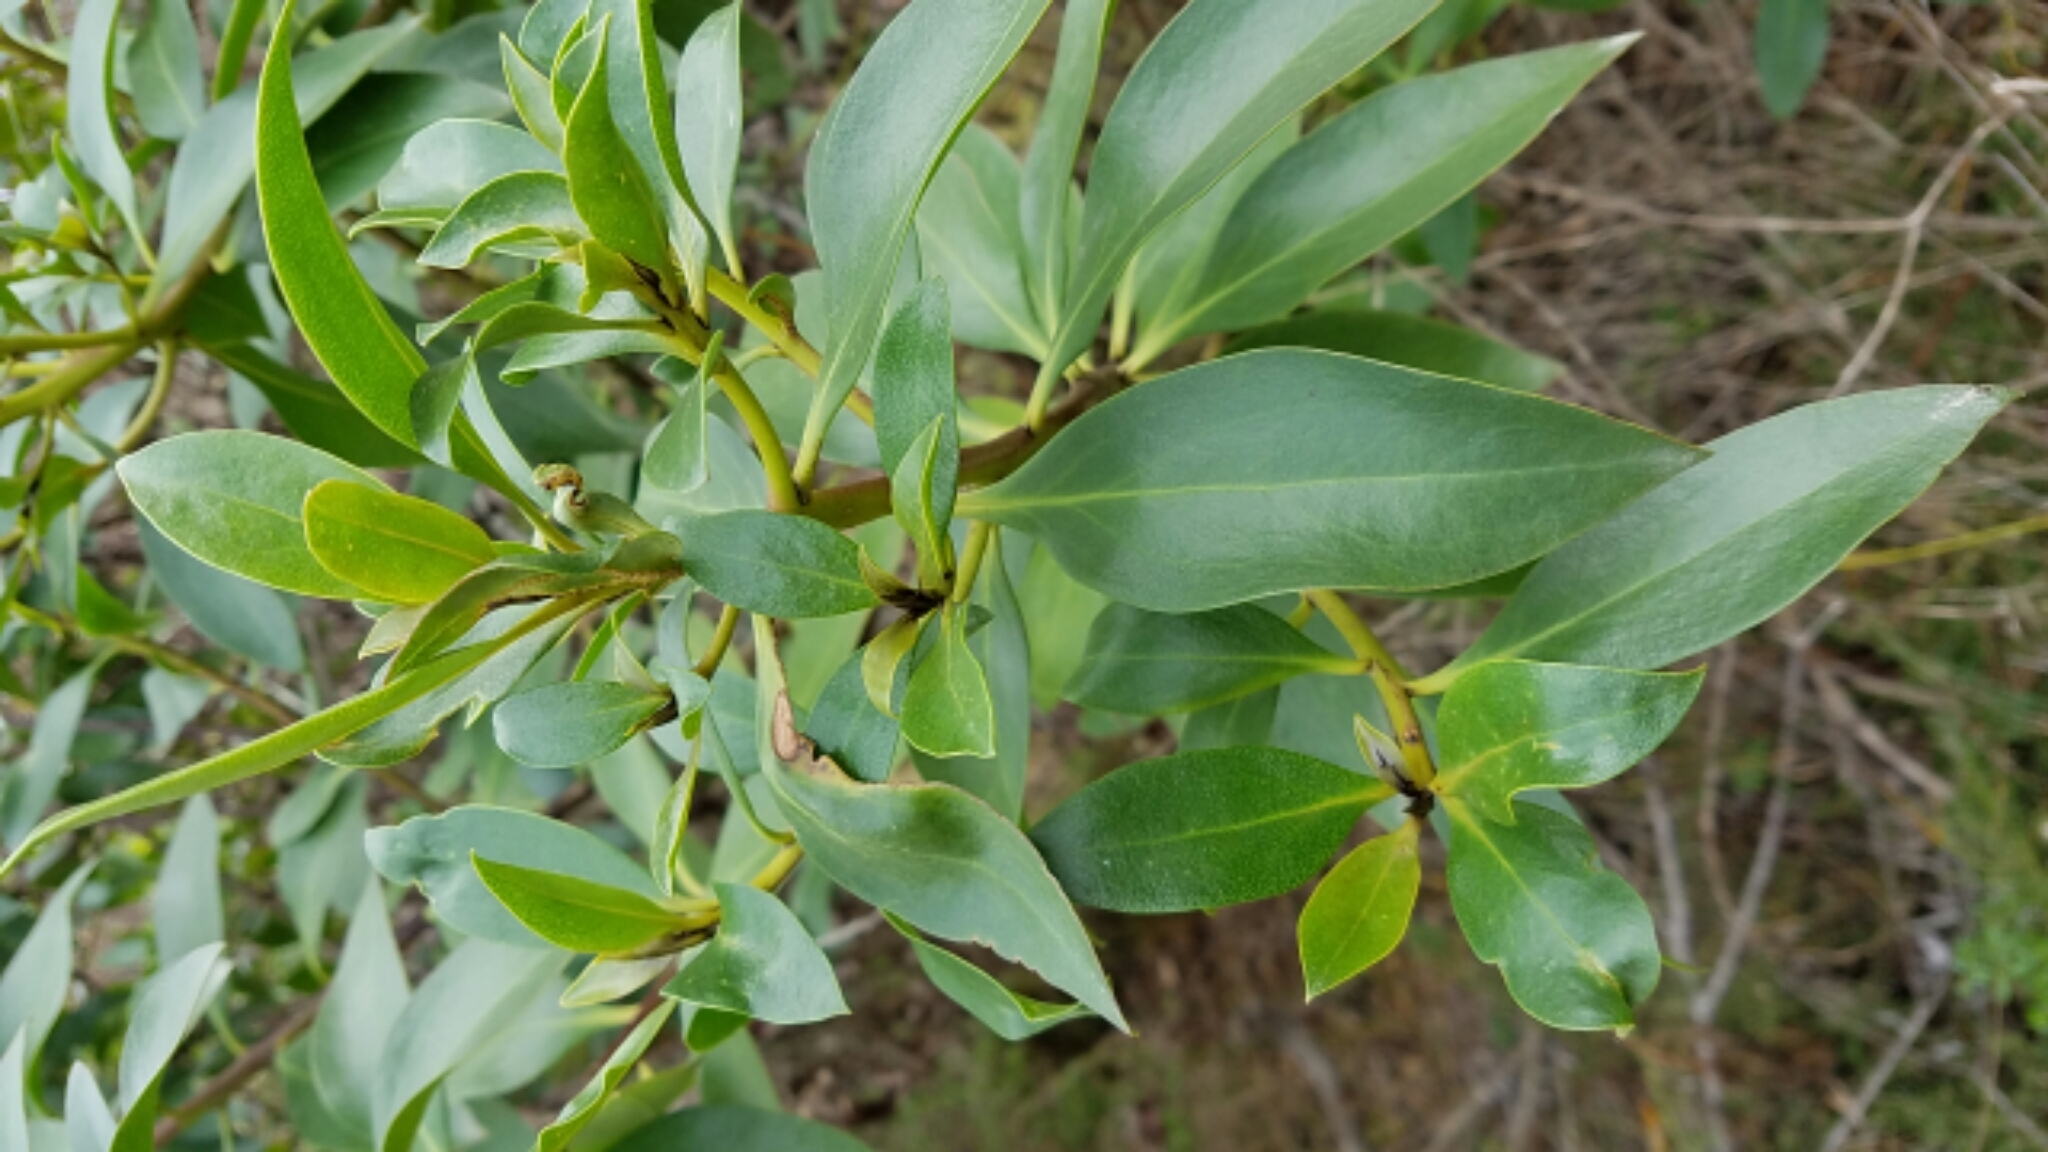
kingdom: Plantae
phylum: Tracheophyta
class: Magnoliopsida
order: Lamiales
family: Scrophulariaceae
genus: Myoporum
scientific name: Myoporum laetum
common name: Ngaio tree
